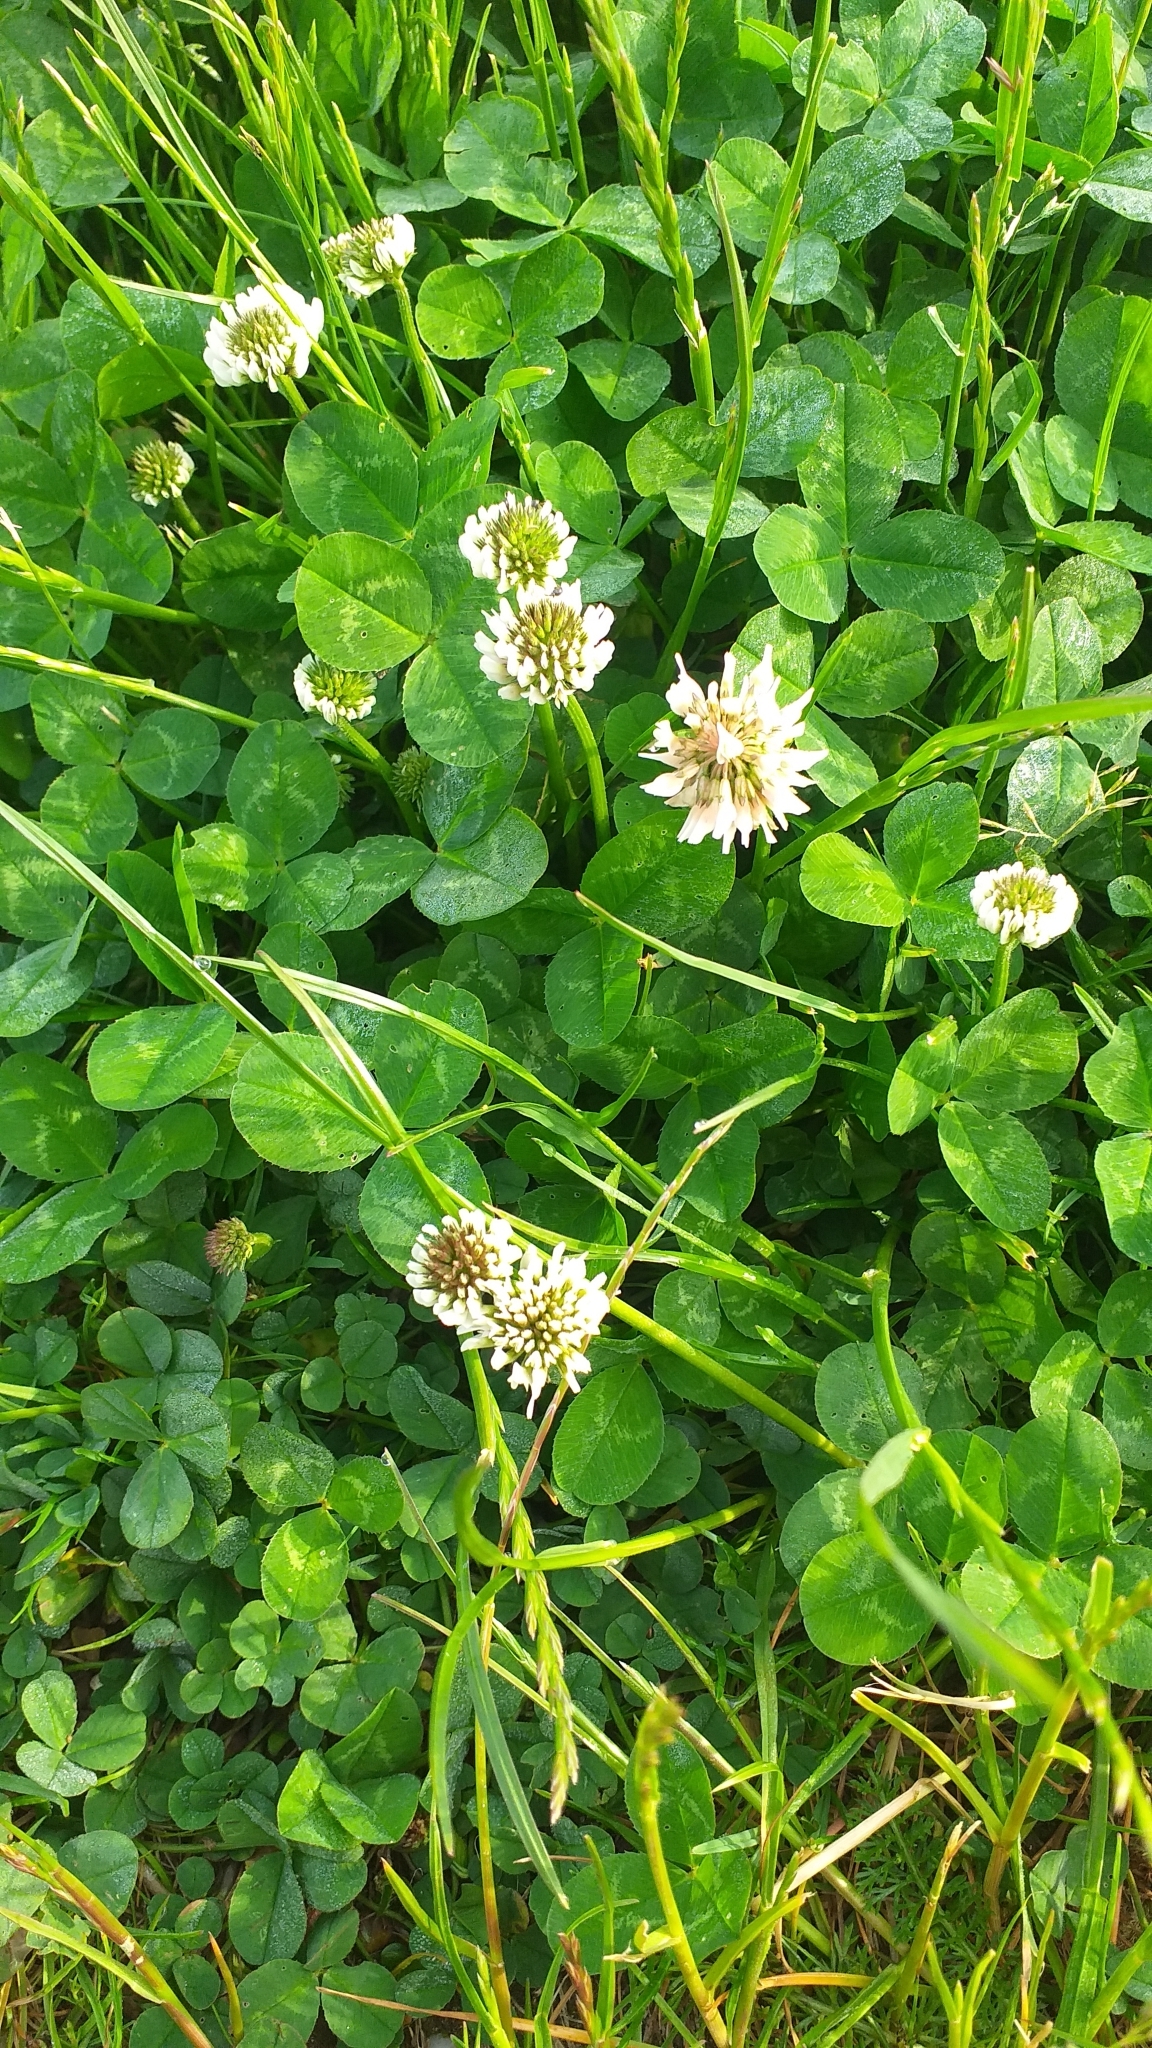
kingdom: Plantae
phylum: Tracheophyta
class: Magnoliopsida
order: Fabales
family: Fabaceae
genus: Trifolium
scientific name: Trifolium repens
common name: White clover
